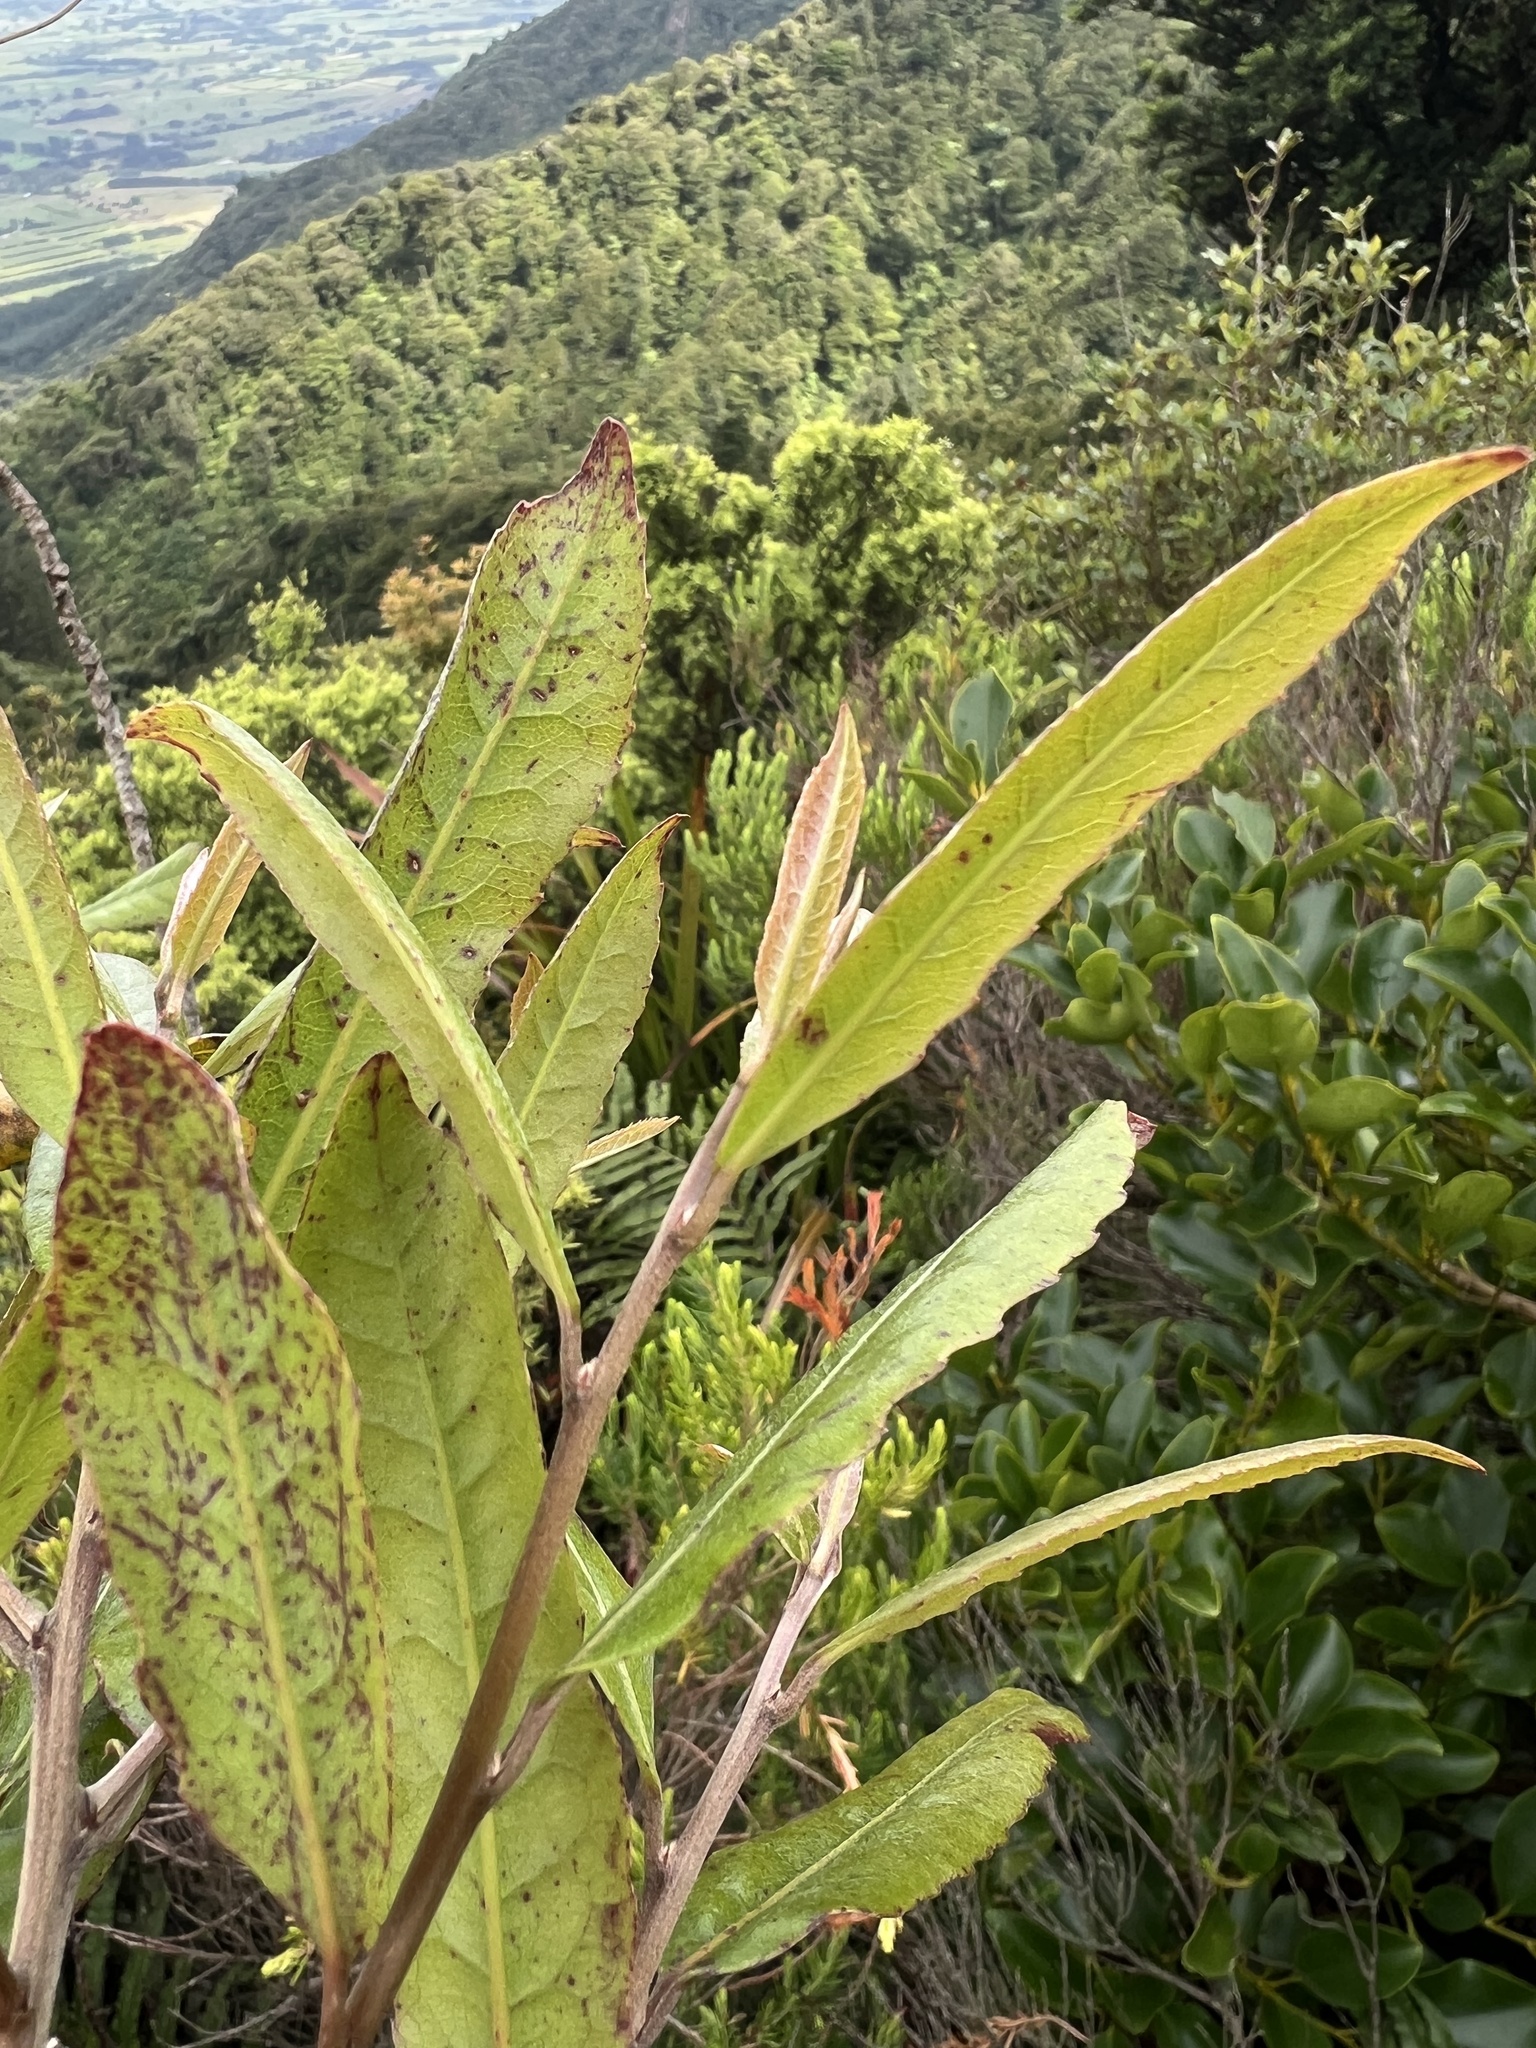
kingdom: Plantae
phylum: Tracheophyta
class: Magnoliopsida
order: Oxalidales
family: Elaeocarpaceae
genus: Elaeocarpus
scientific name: Elaeocarpus dentatus
